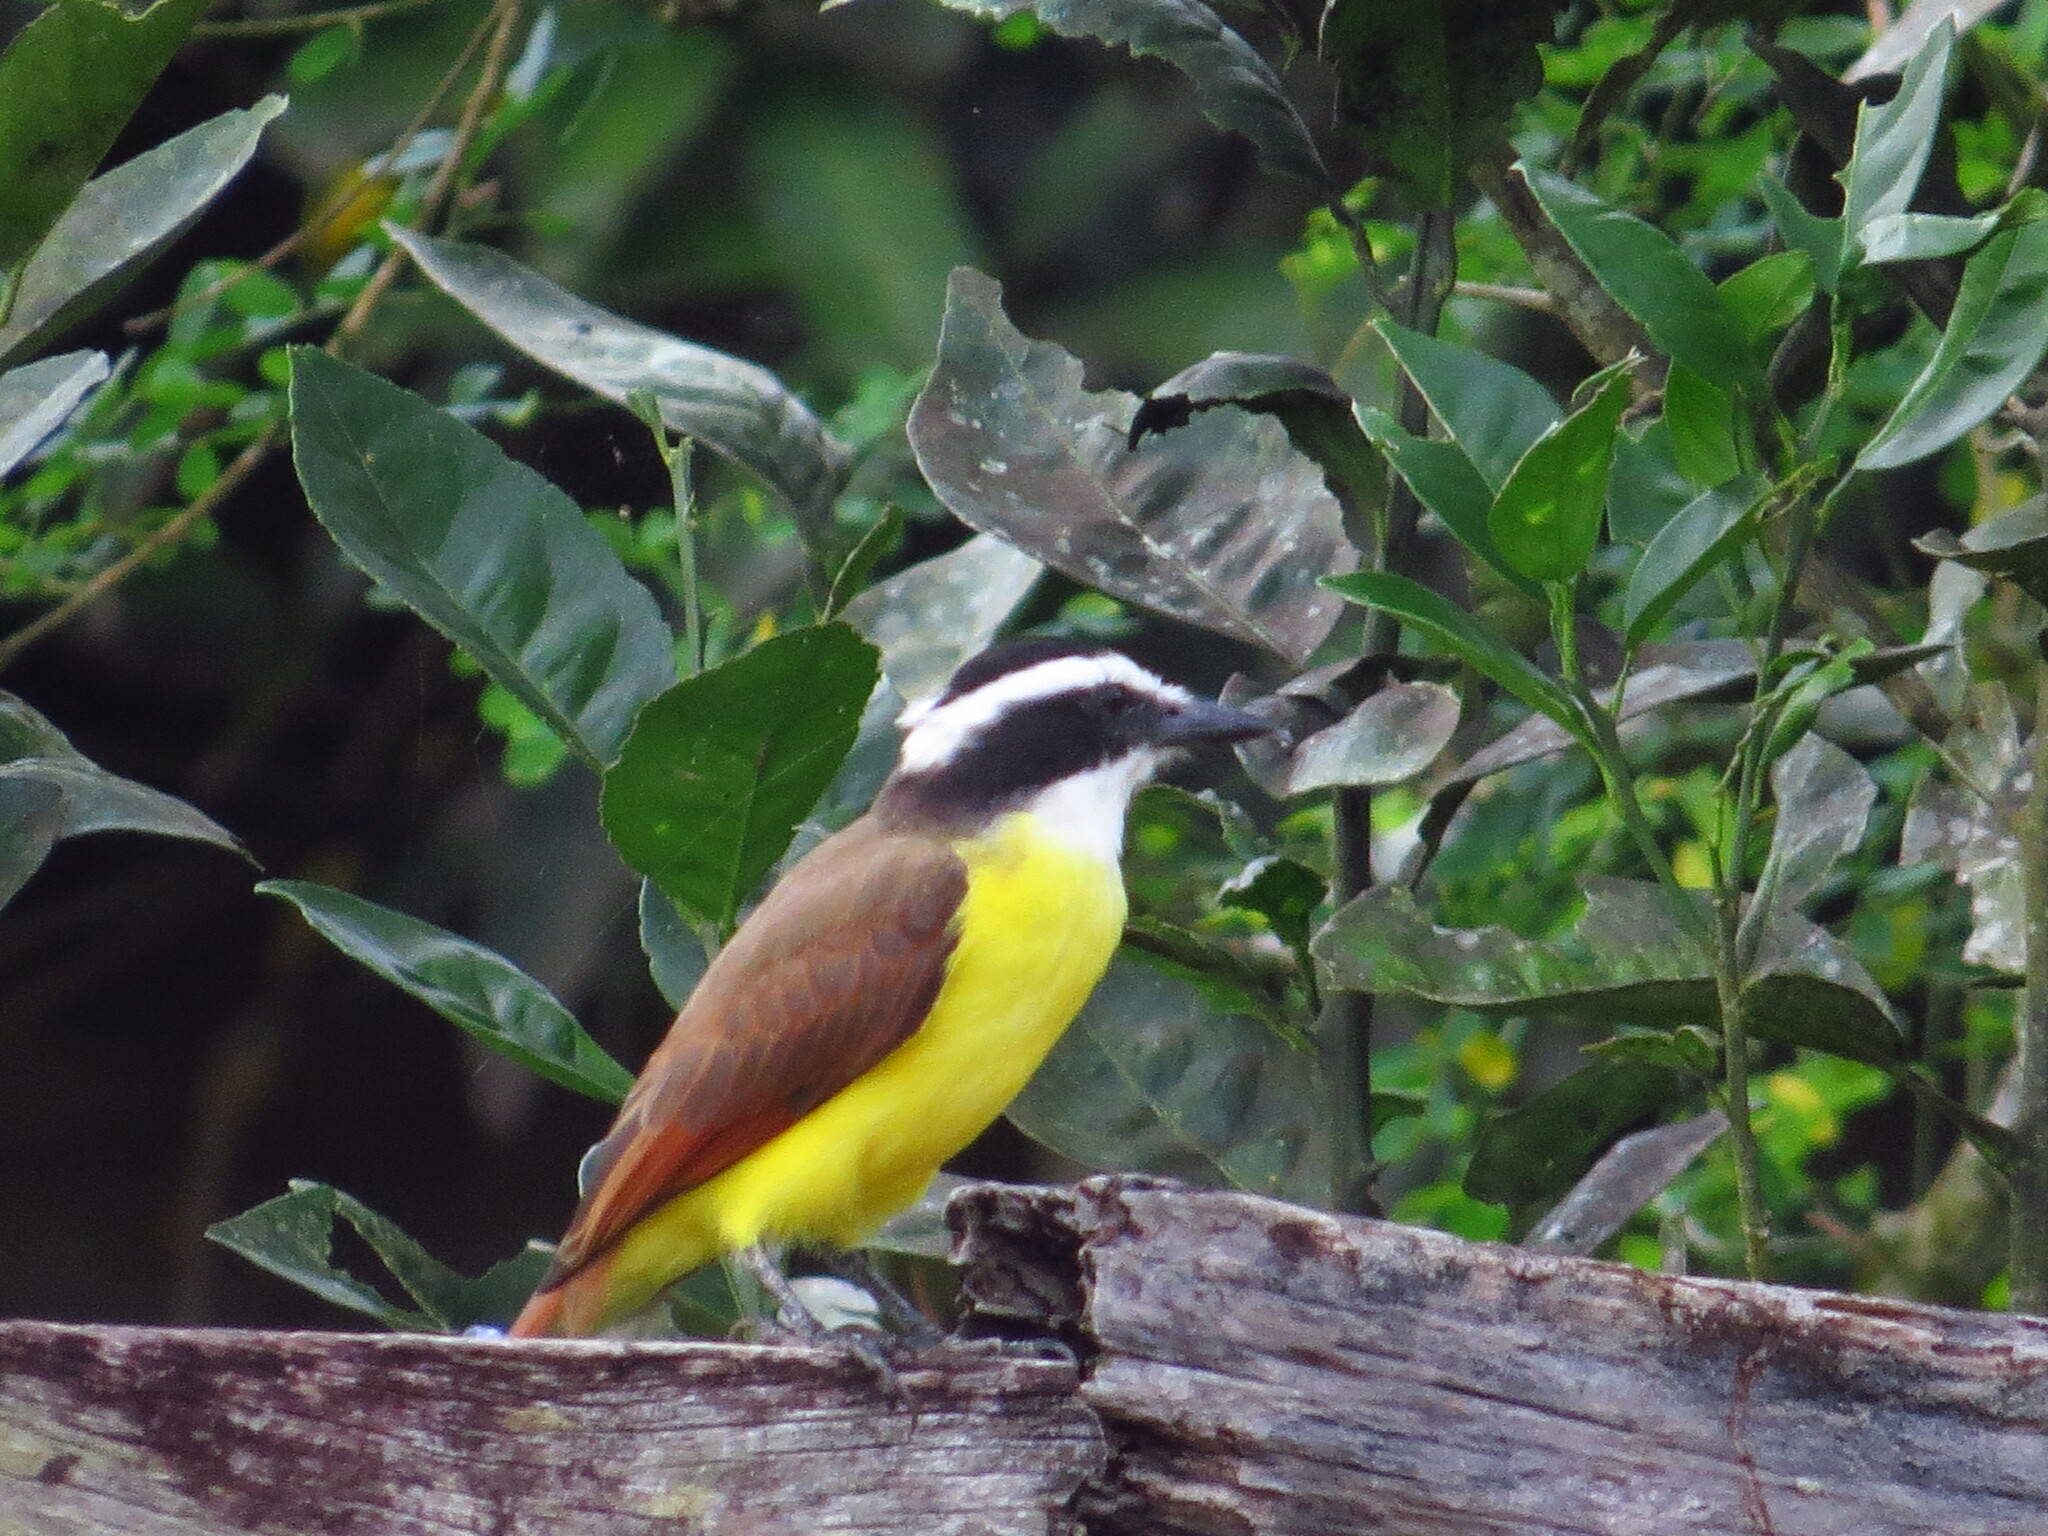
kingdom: Animalia
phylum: Chordata
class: Aves
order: Passeriformes
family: Tyrannidae
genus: Pitangus
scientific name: Pitangus sulphuratus
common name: Great kiskadee
